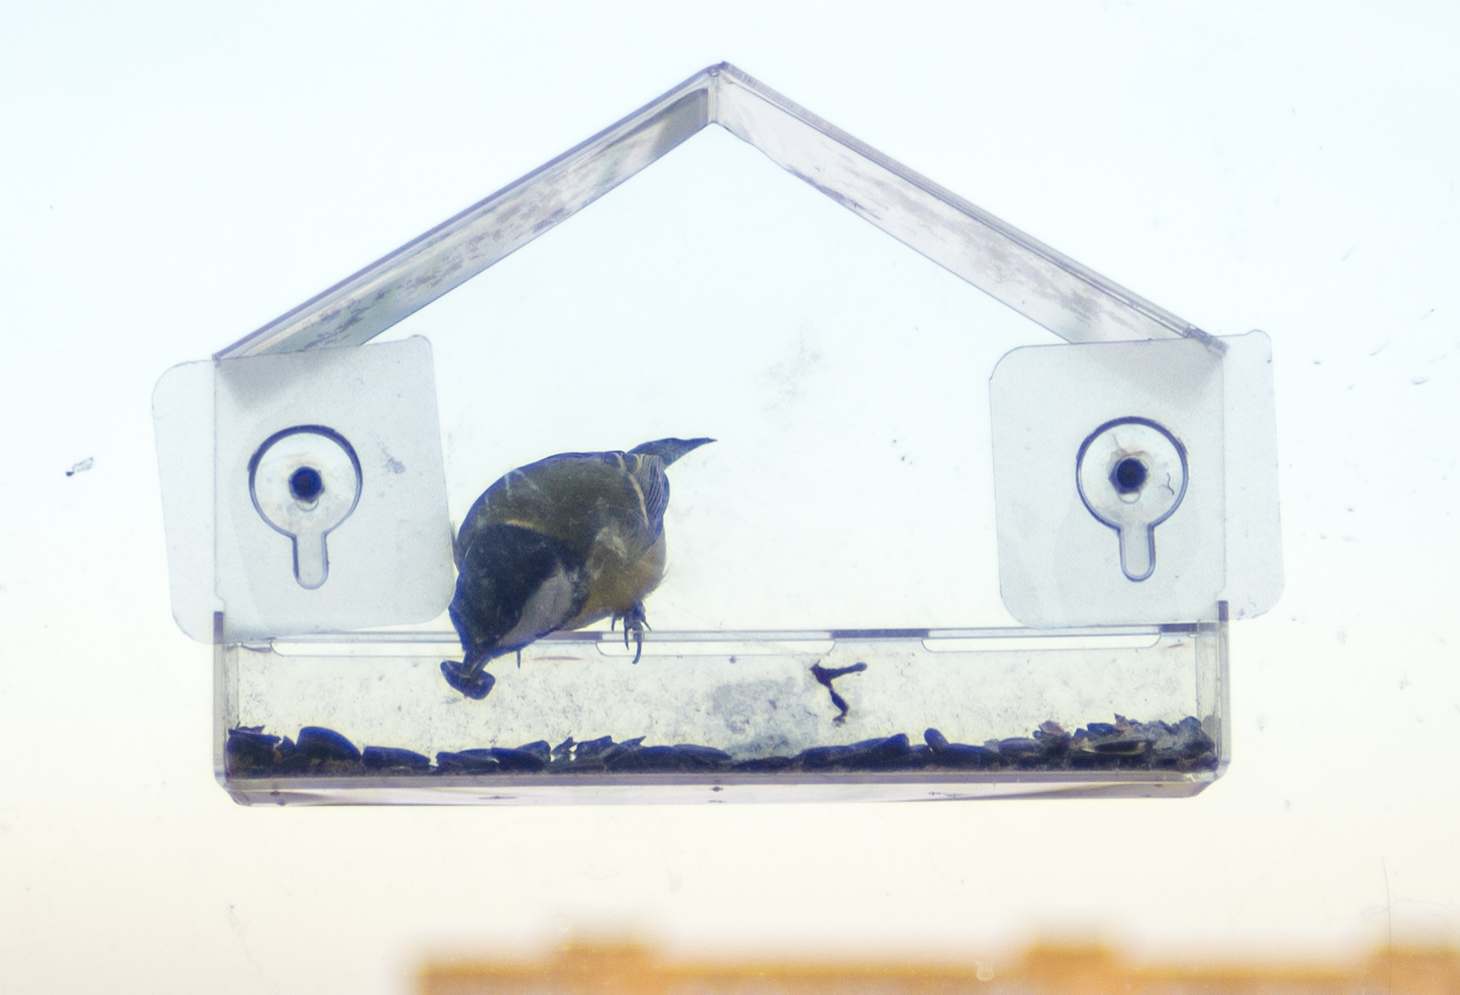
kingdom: Animalia
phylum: Chordata
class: Aves
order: Passeriformes
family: Paridae
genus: Parus
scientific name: Parus major
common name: Great tit
